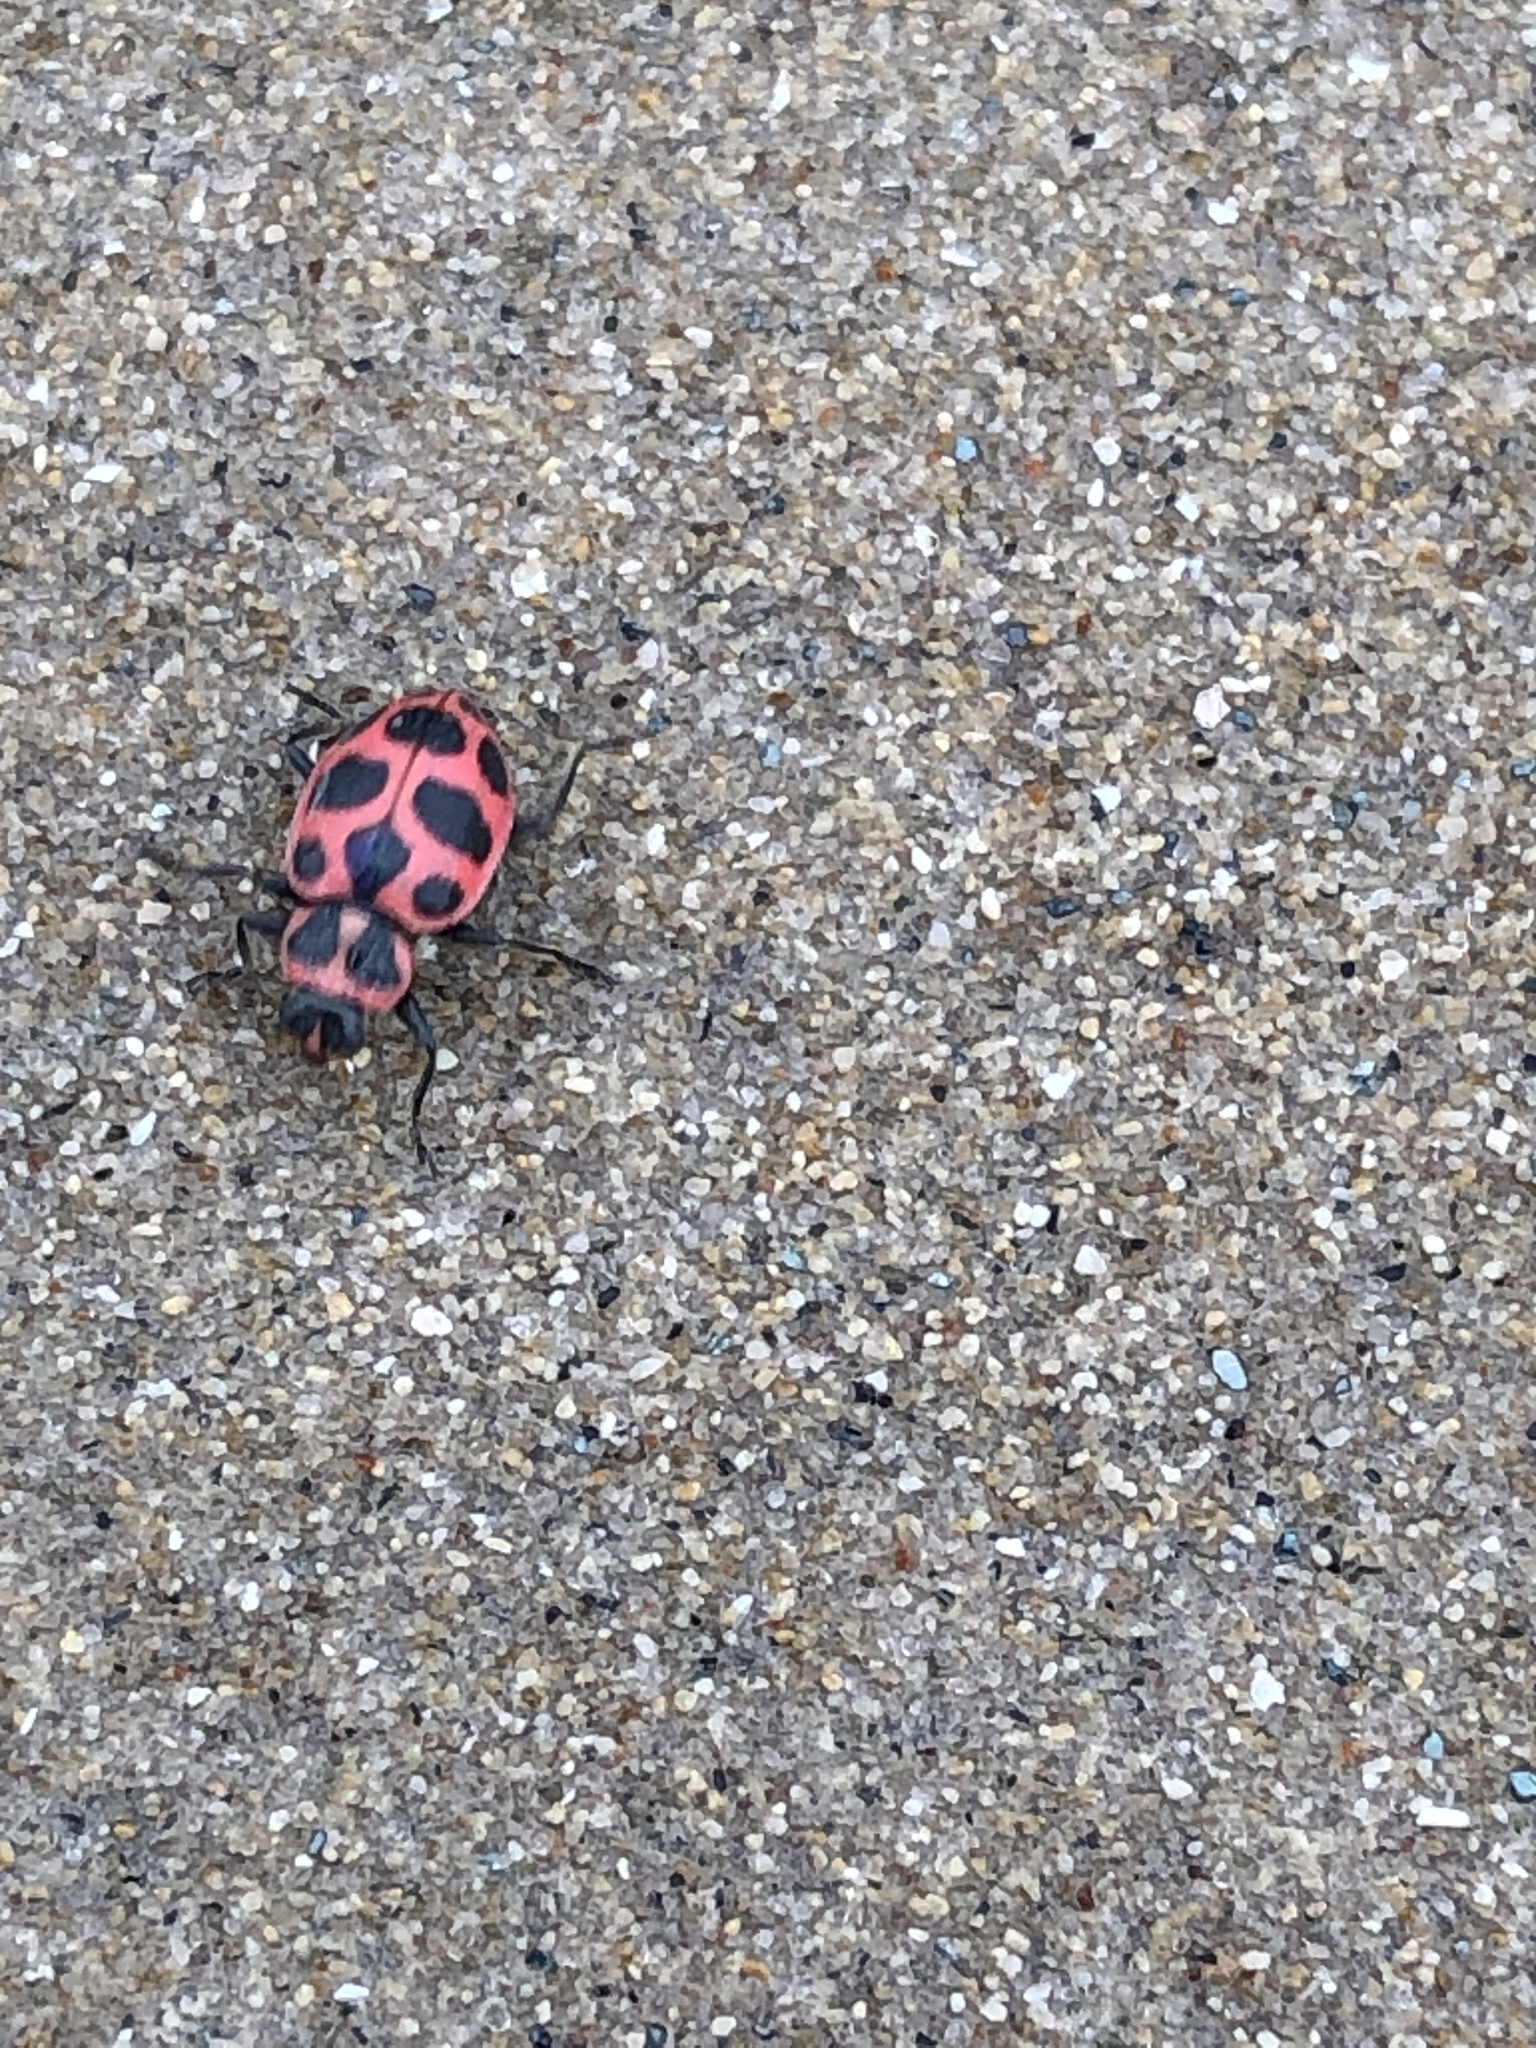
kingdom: Animalia
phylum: Arthropoda
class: Insecta
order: Coleoptera
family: Coccinellidae
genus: Coleomegilla
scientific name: Coleomegilla maculata
